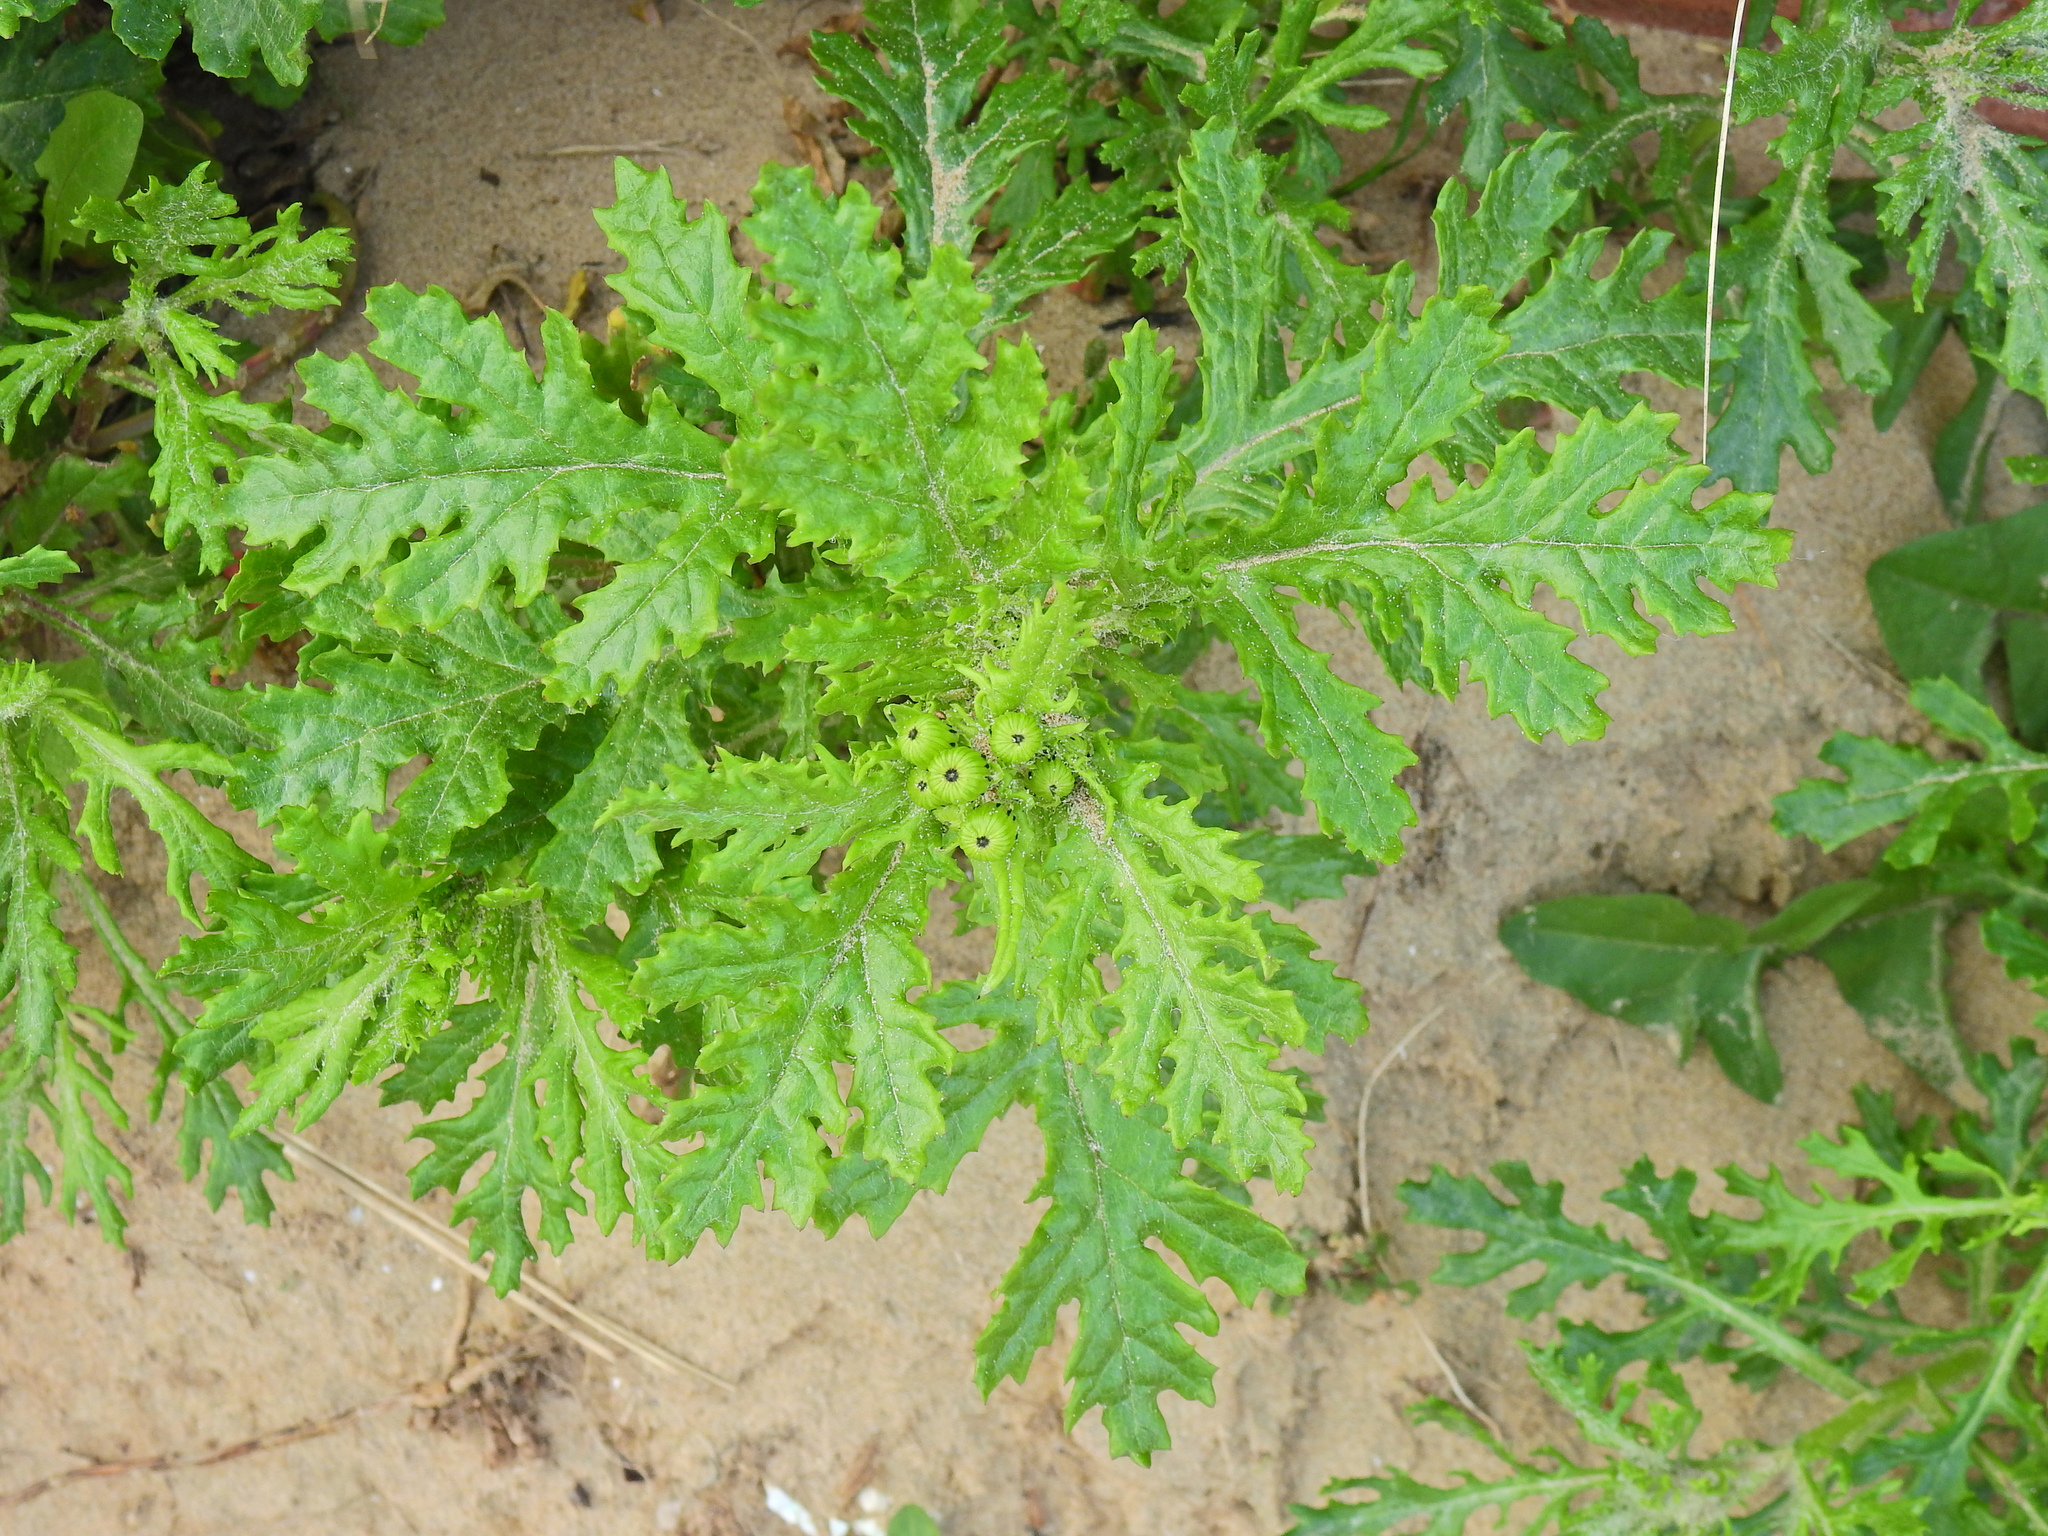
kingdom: Plantae
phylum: Tracheophyta
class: Magnoliopsida
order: Asterales
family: Asteraceae
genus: Senecio
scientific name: Senecio squalidus
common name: Oxford ragwort
